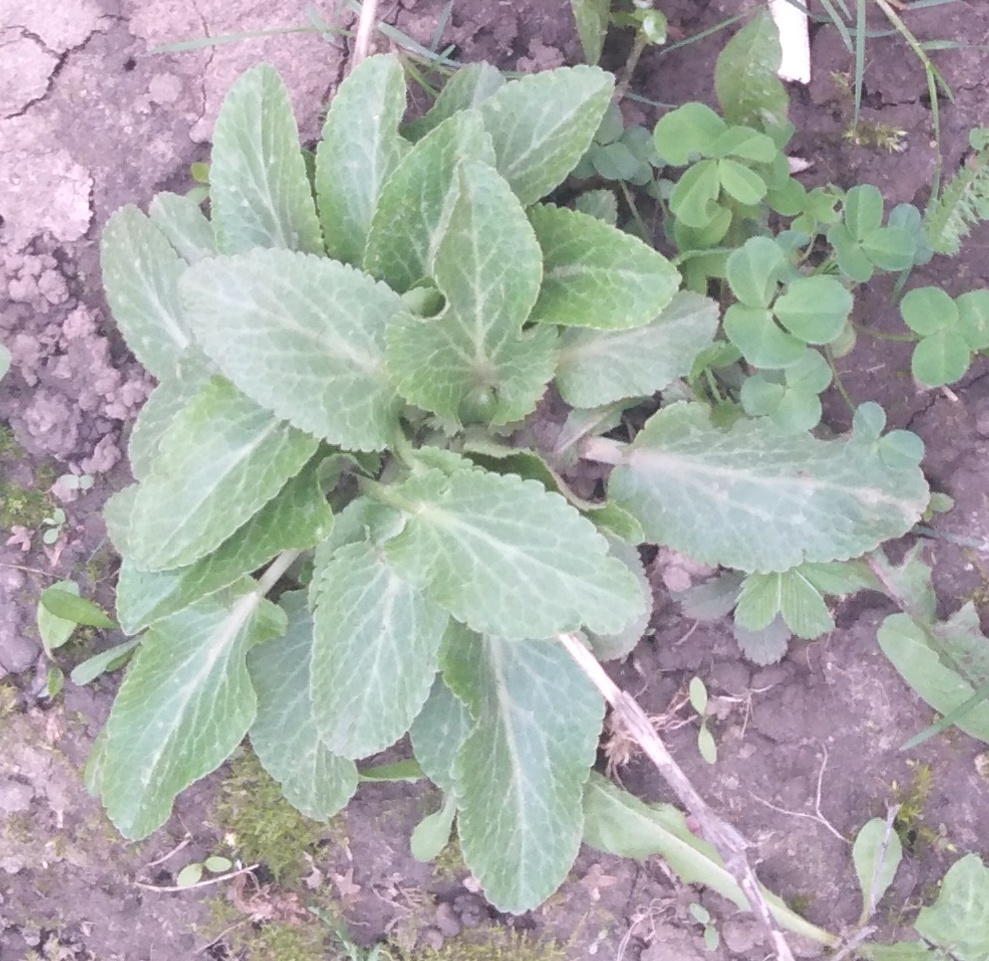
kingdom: Plantae
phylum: Tracheophyta
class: Magnoliopsida
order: Apiales
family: Apiaceae
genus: Eryngium
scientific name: Eryngium planum
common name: Blue eryngo
